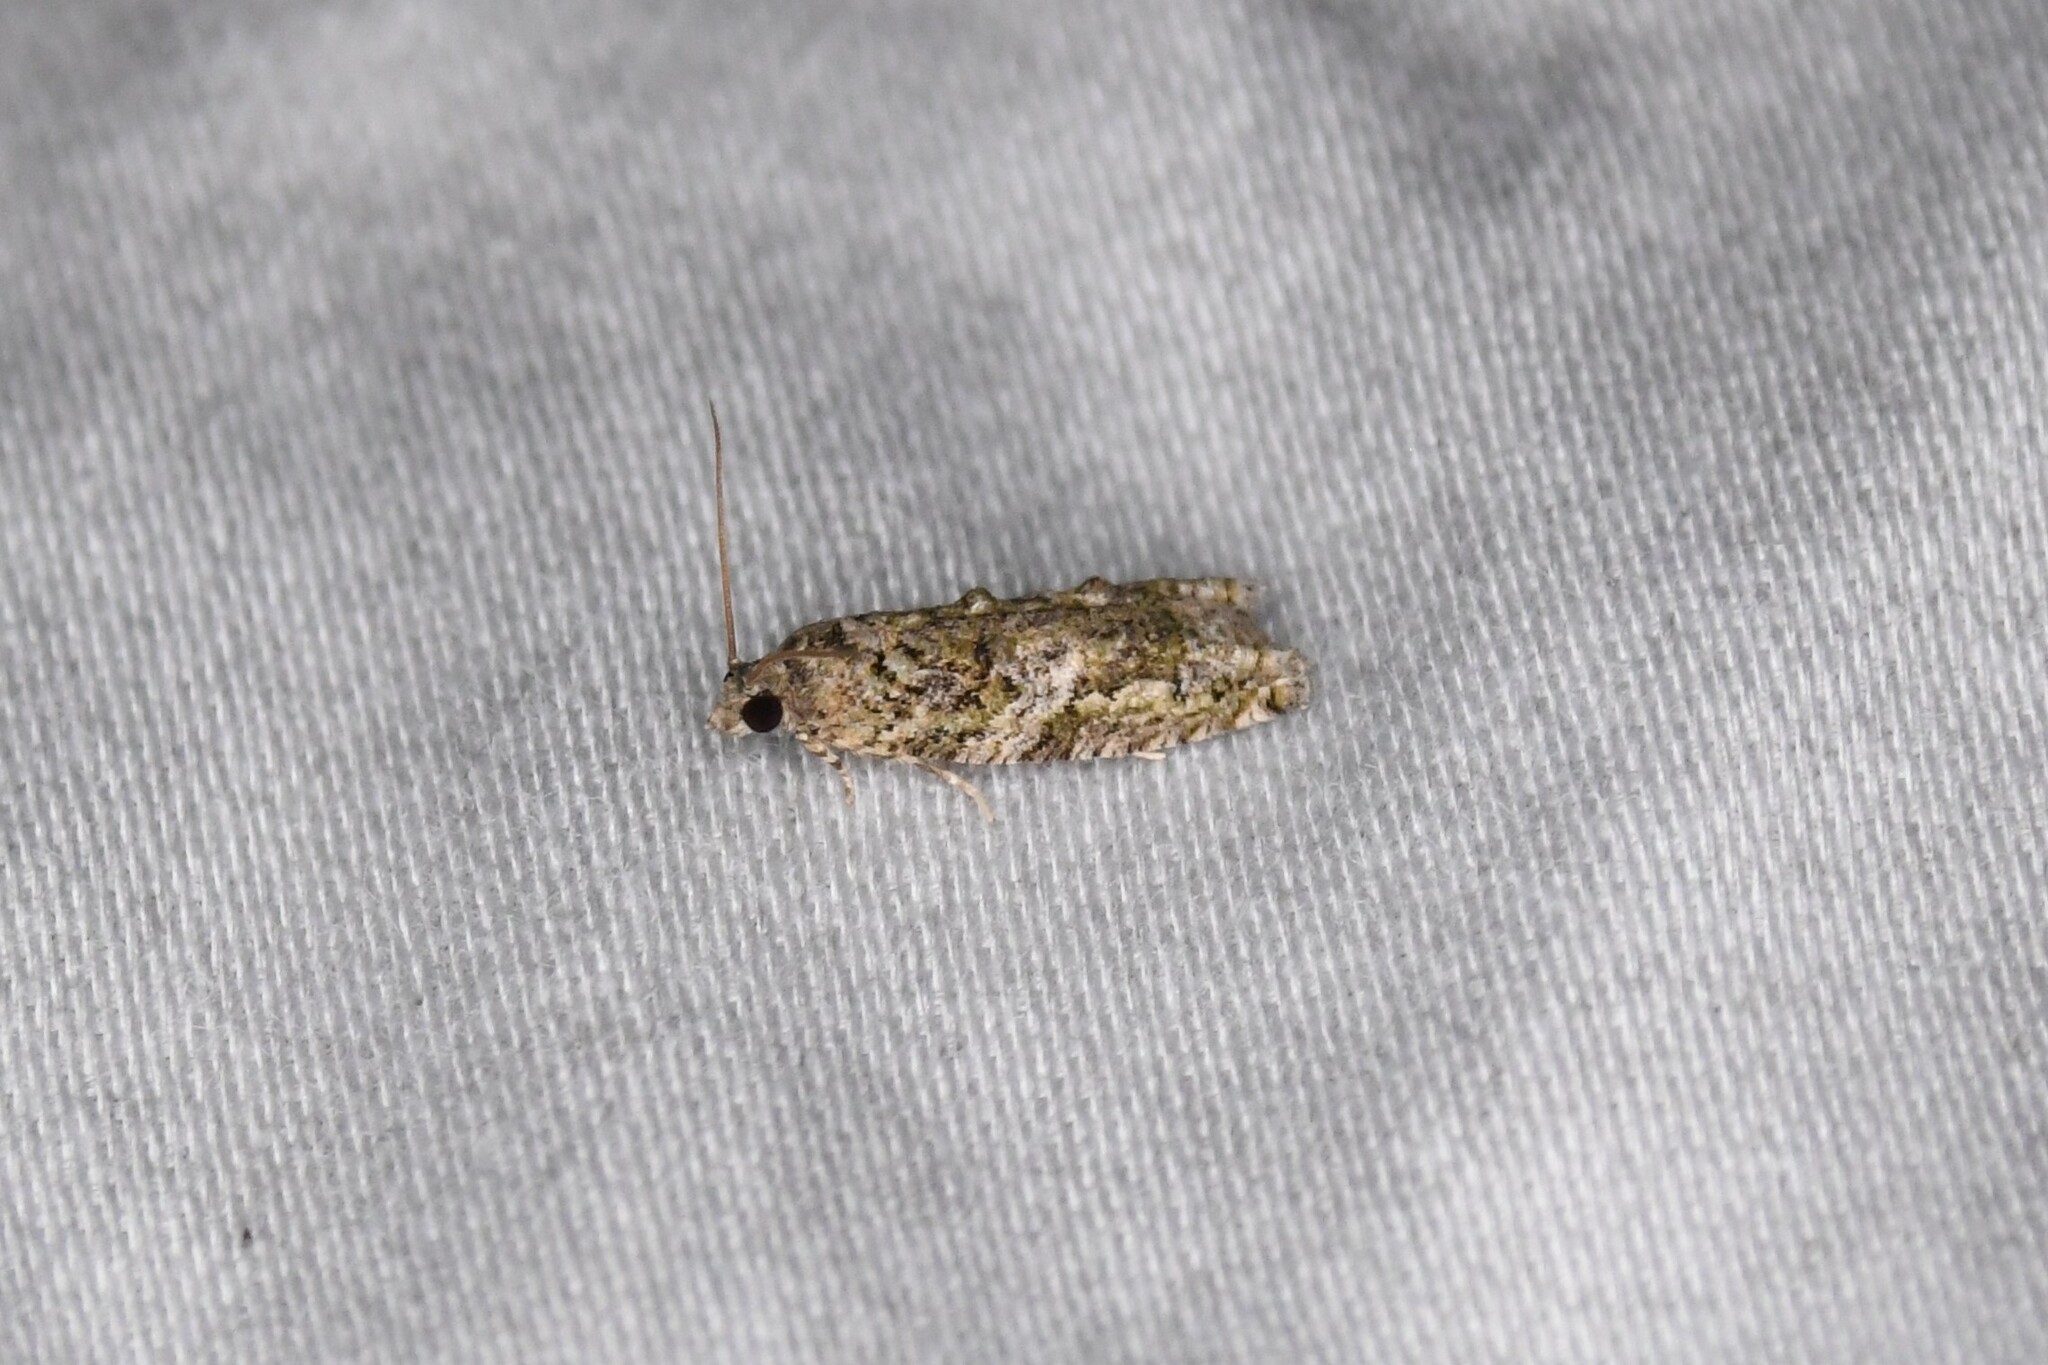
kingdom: Animalia
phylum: Arthropoda
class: Insecta
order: Lepidoptera
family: Tortricidae
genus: Proteoteras
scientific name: Proteoteras aesculana
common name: Maple twig borer moth
